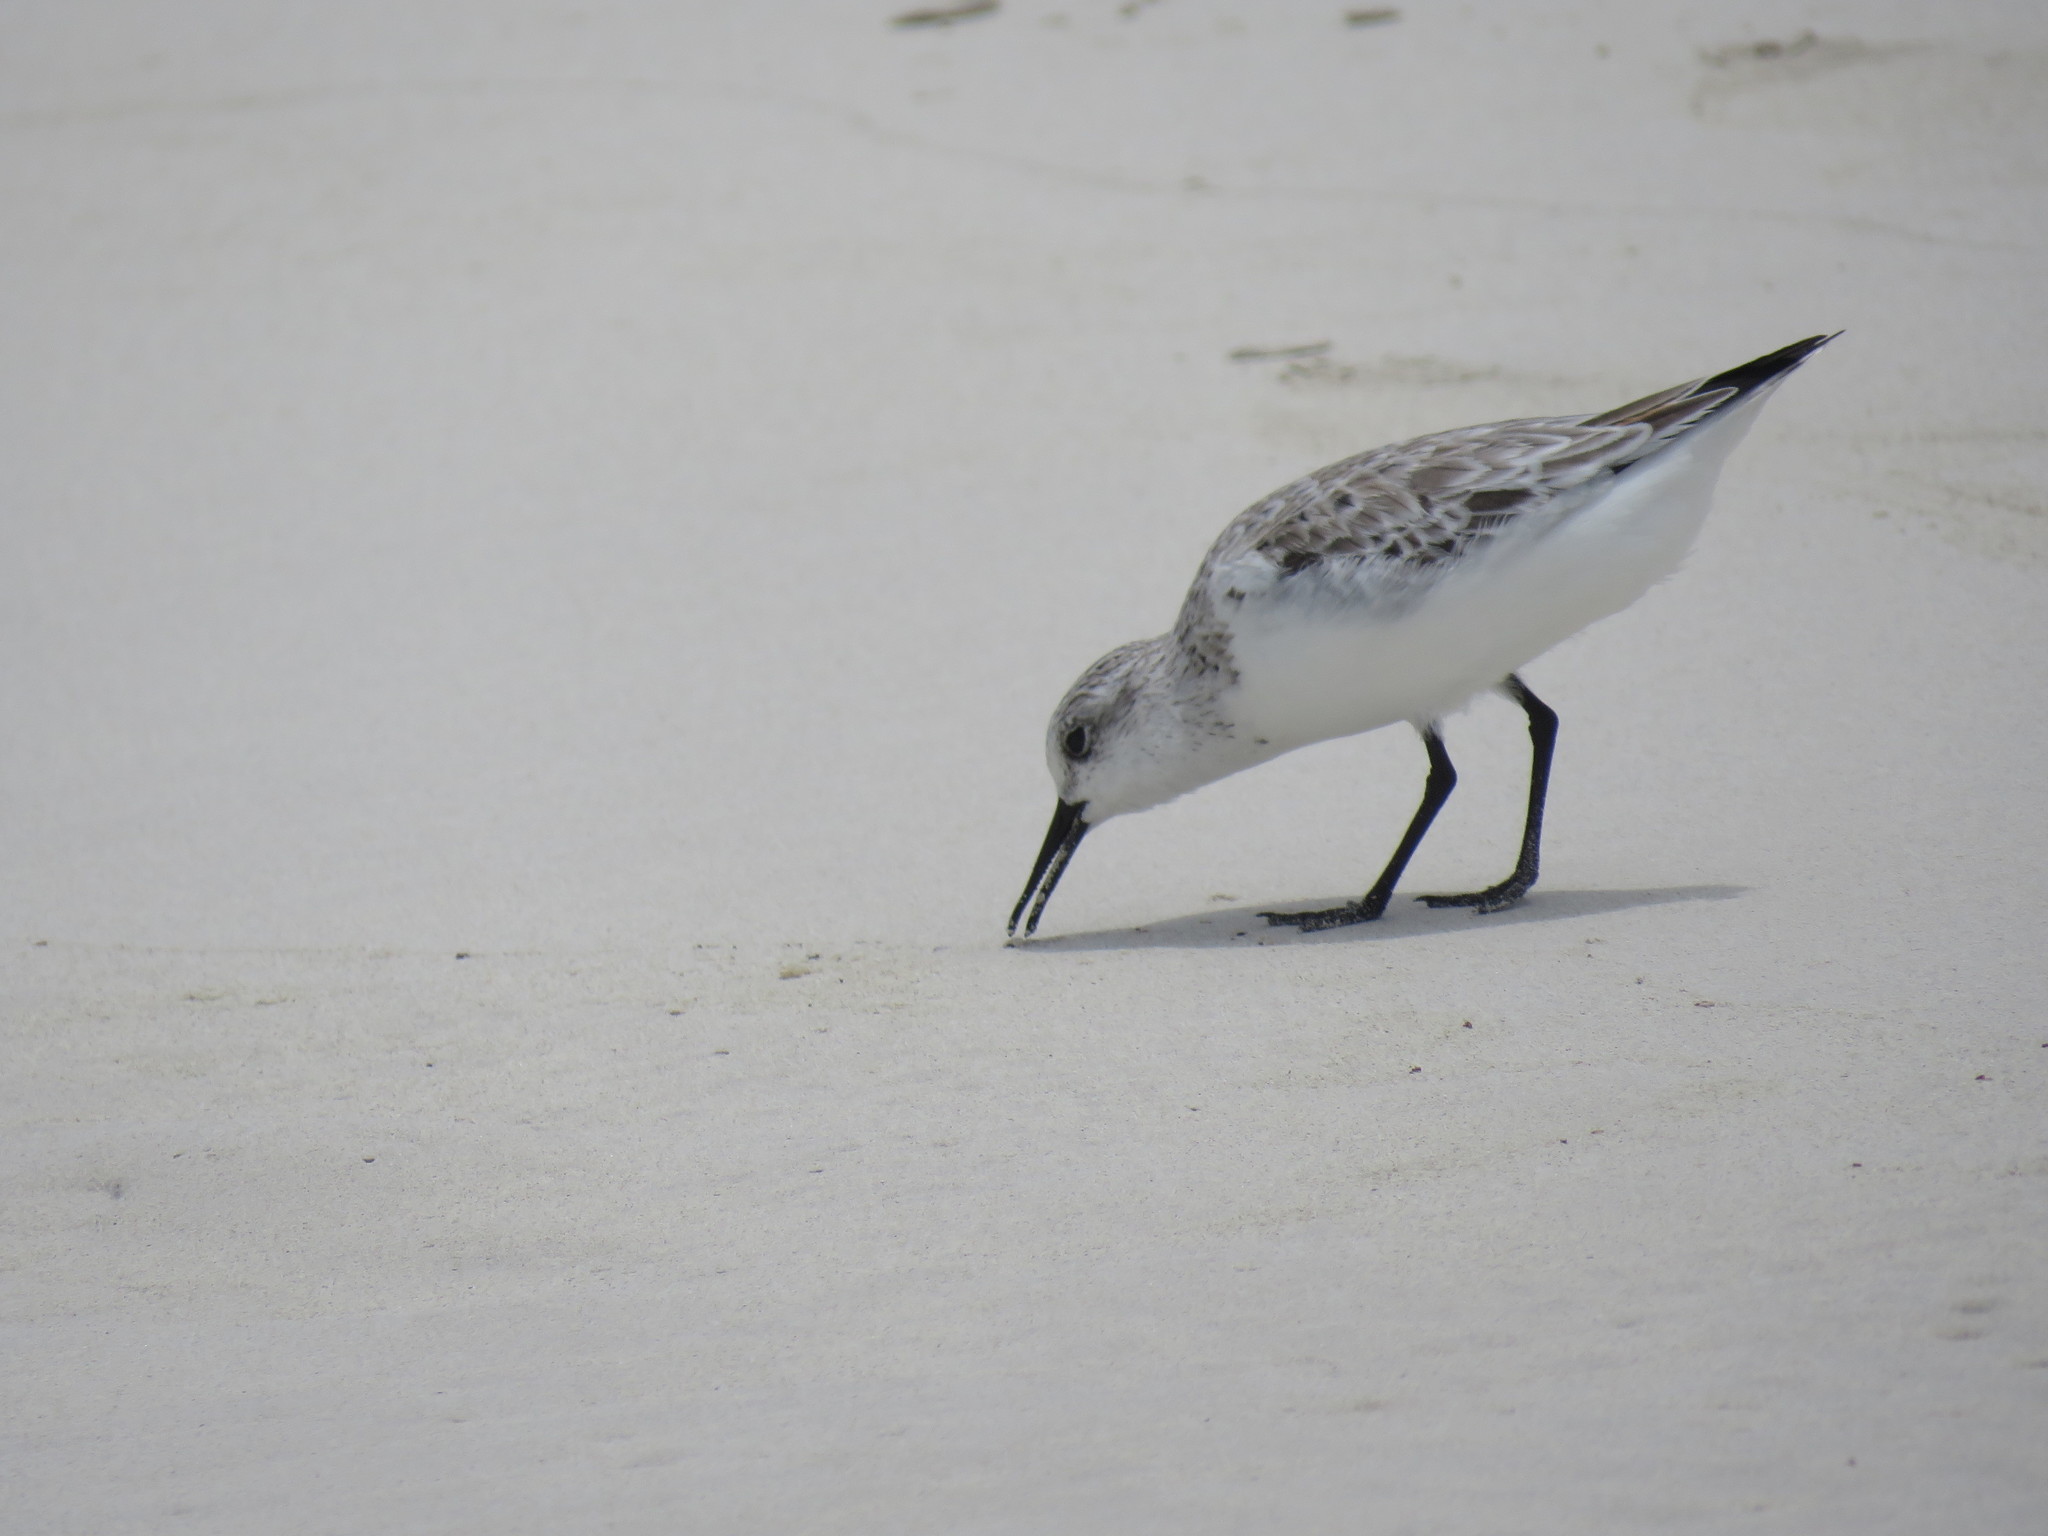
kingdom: Animalia
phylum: Chordata
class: Aves
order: Charadriiformes
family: Scolopacidae
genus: Calidris
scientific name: Calidris alba
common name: Sanderling
